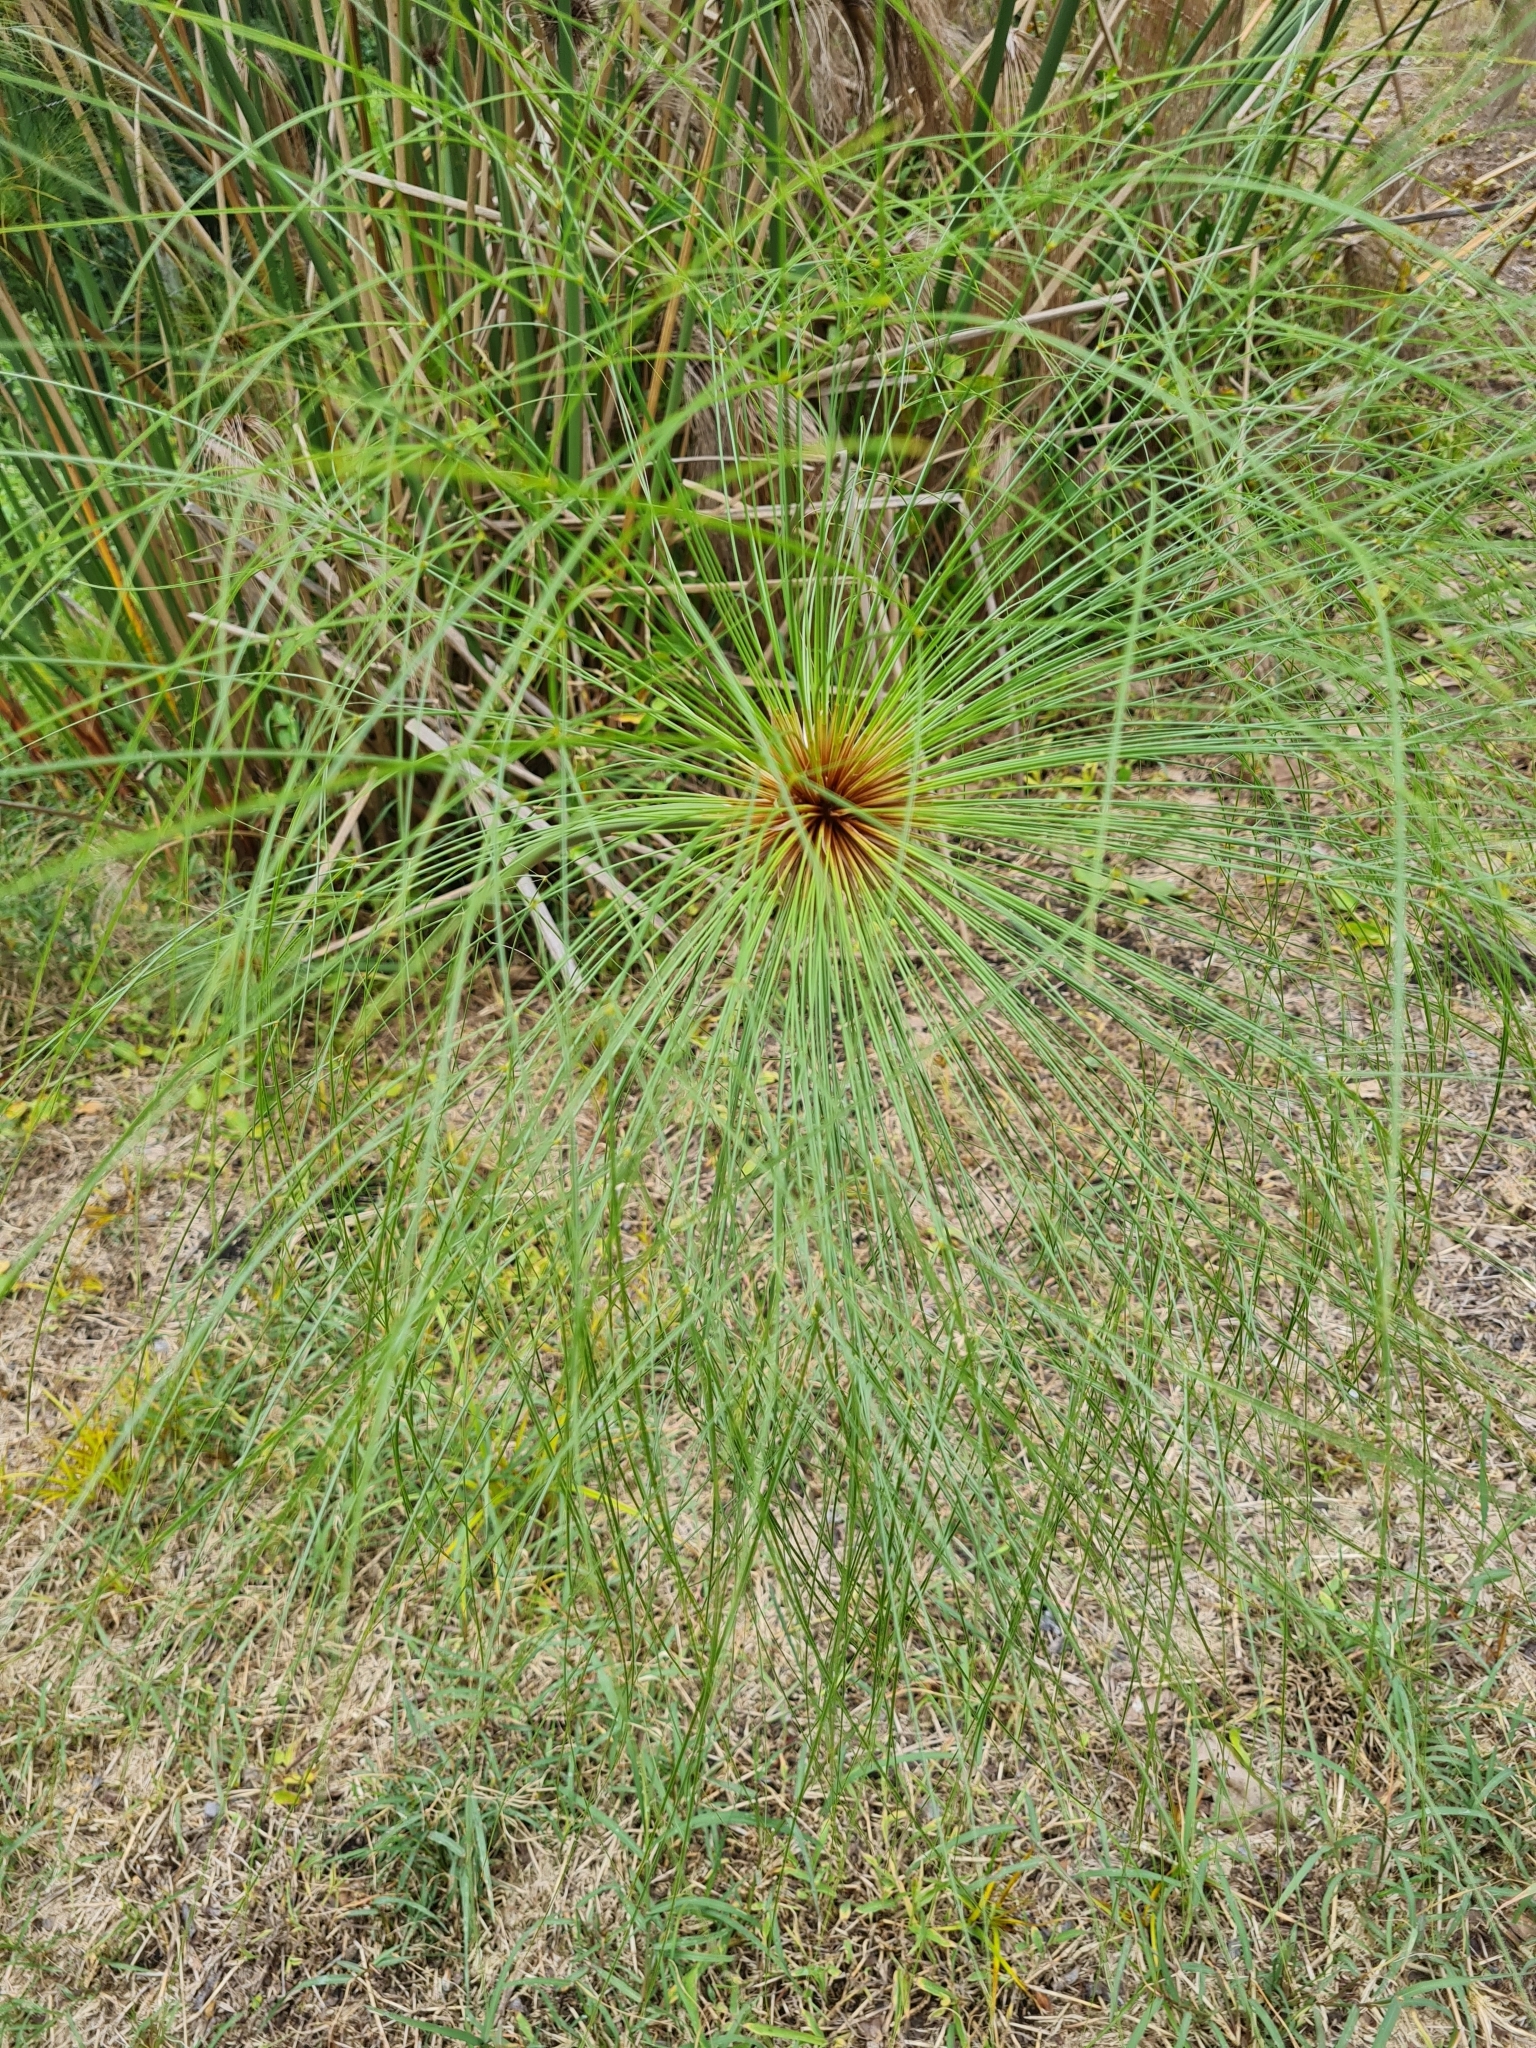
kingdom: Plantae
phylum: Tracheophyta
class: Liliopsida
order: Poales
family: Cyperaceae
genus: Cyperus
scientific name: Cyperus papyrus
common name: Papyrus
